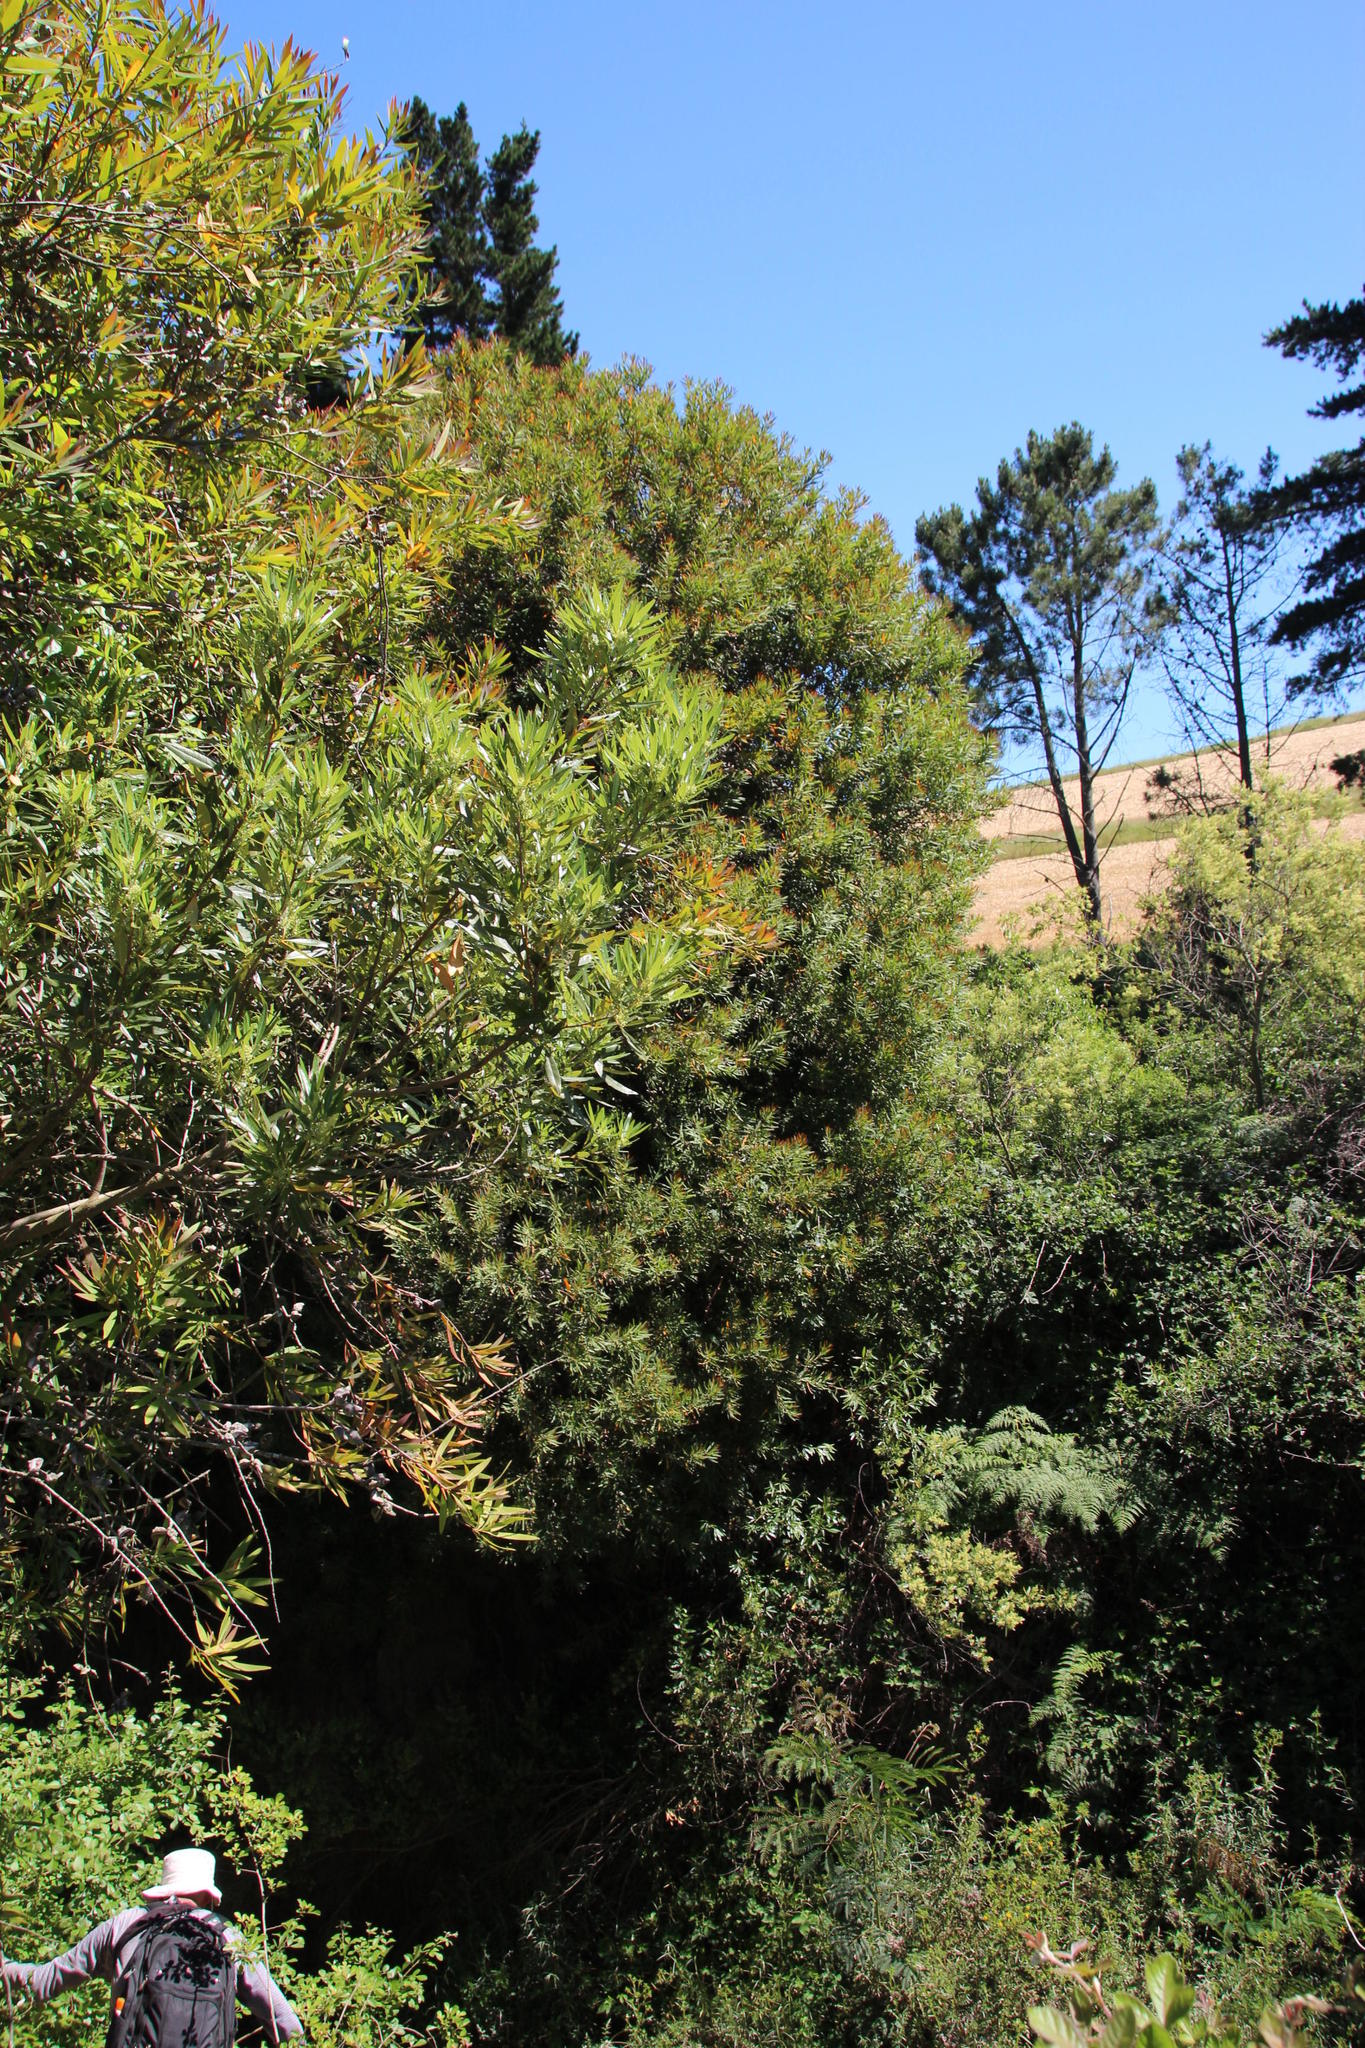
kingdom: Plantae
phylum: Tracheophyta
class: Magnoliopsida
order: Proteales
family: Proteaceae
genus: Hakea
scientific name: Hakea salicifolia
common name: Willow hakea
